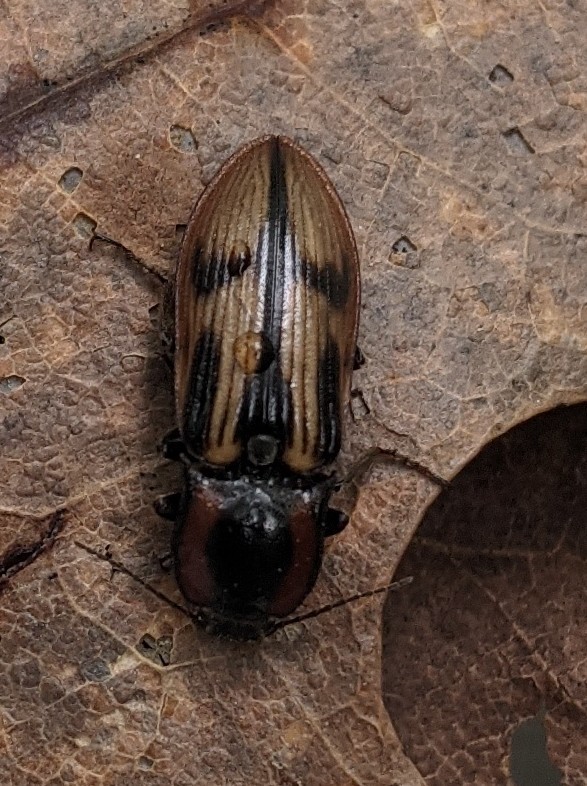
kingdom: Animalia
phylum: Arthropoda
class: Insecta
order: Coleoptera
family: Elateridae
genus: Selatosomus
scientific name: Selatosomus pulcher
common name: Noble click beetle
